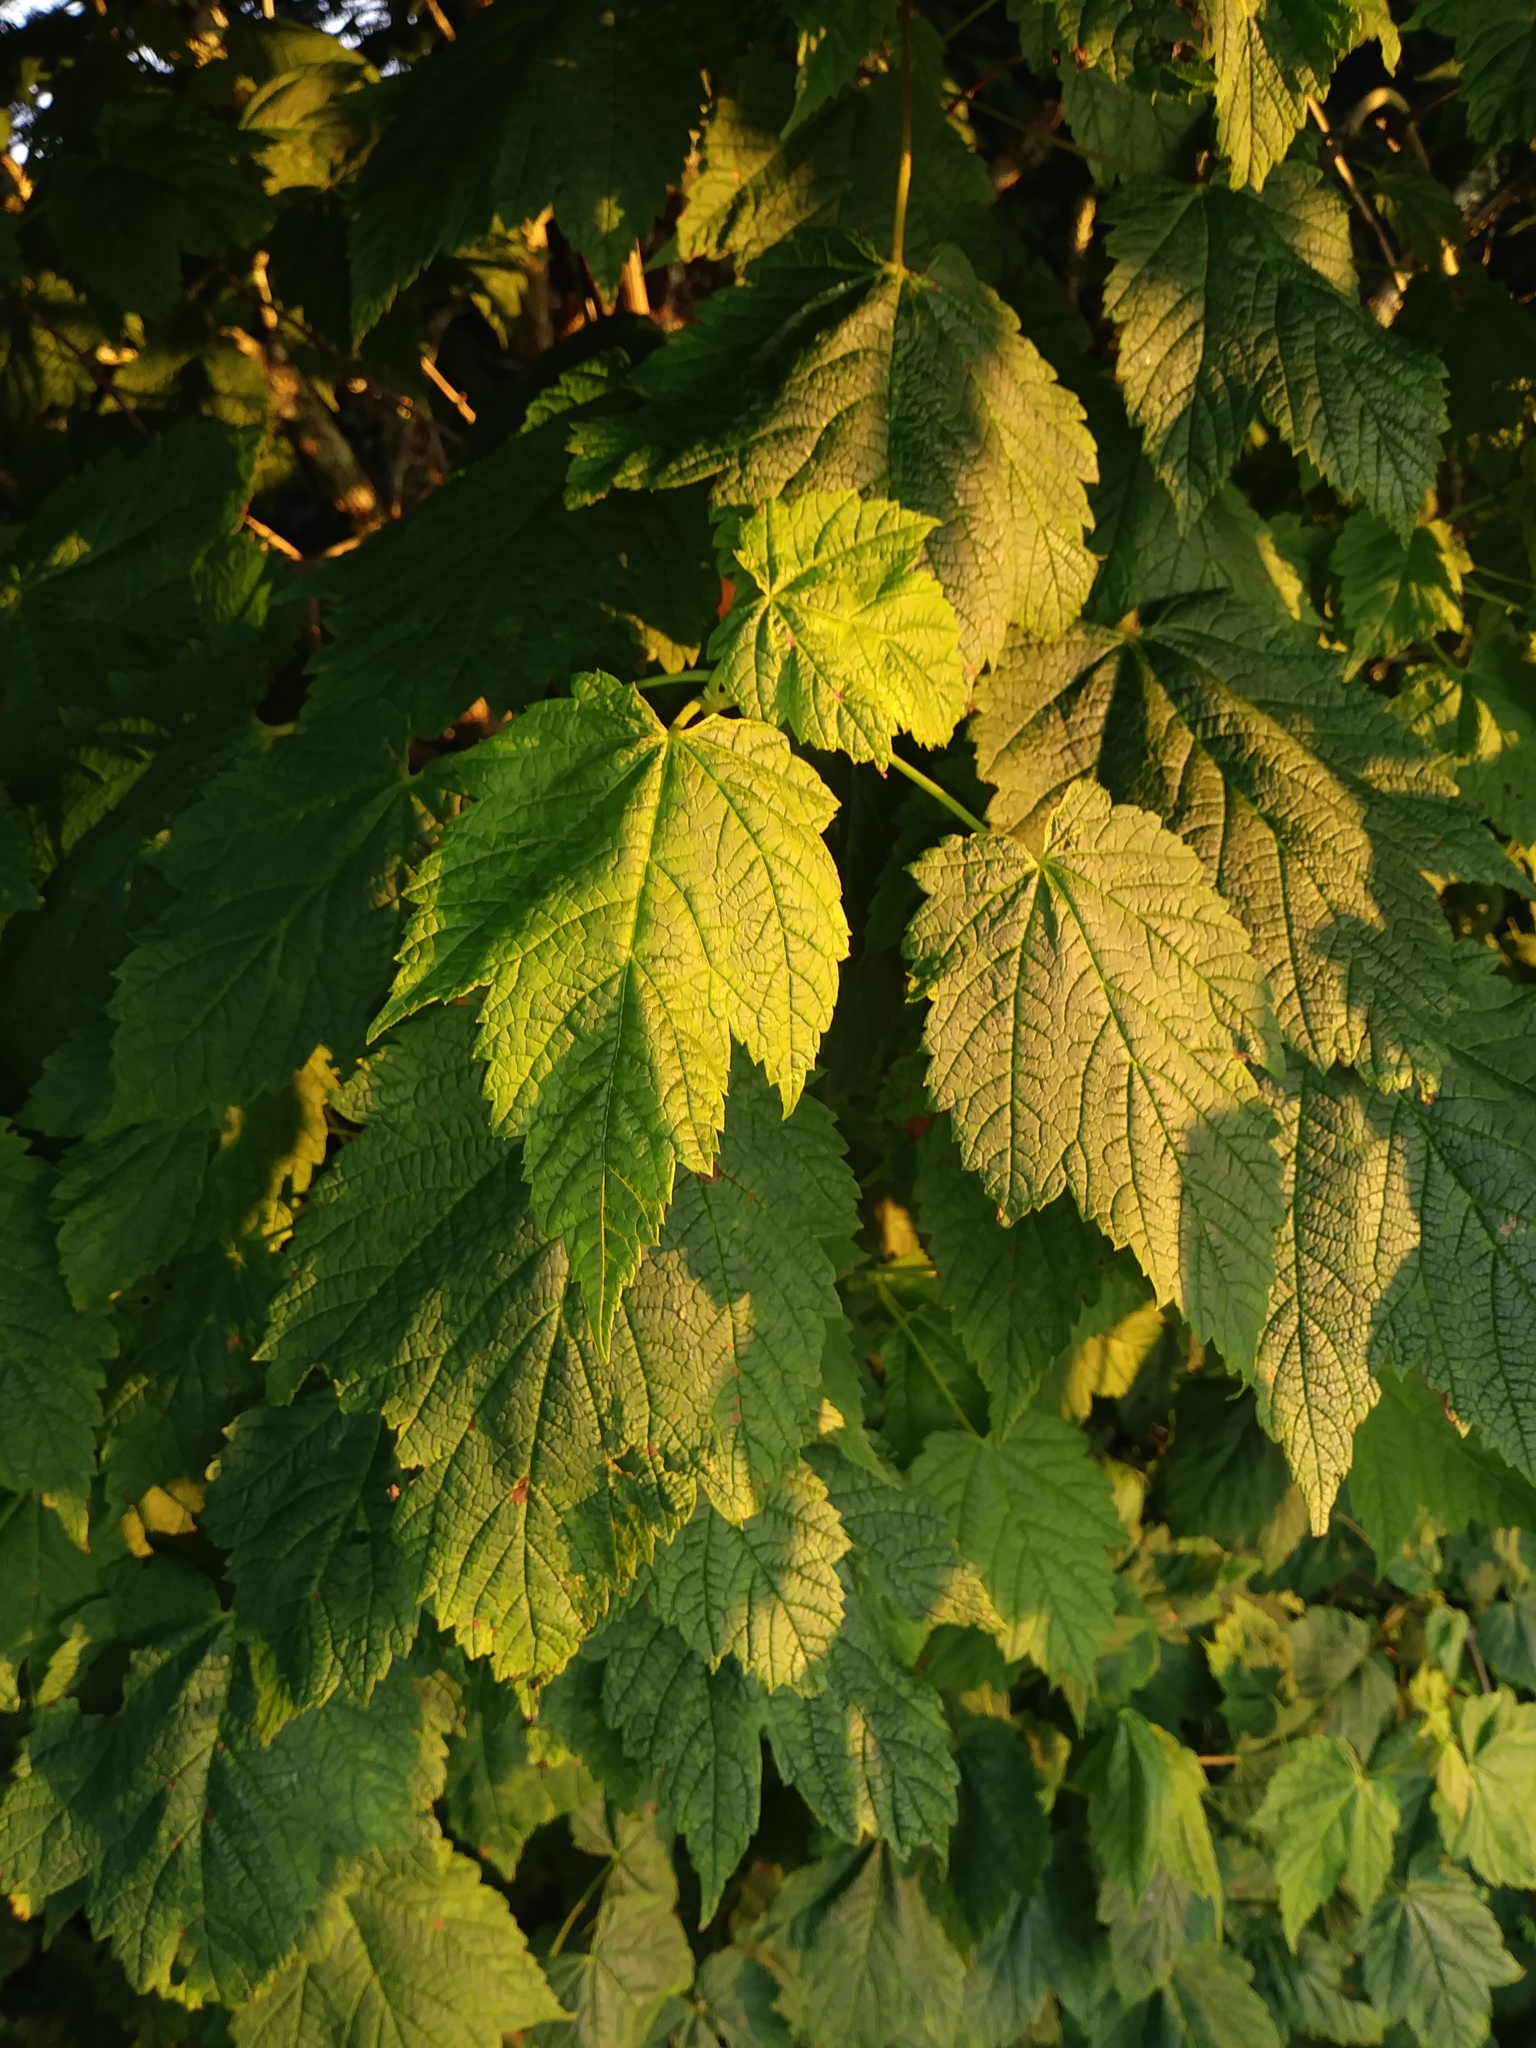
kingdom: Plantae
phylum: Tracheophyta
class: Magnoliopsida
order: Sapindales
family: Sapindaceae
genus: Acer
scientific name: Acer spicatum
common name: Mountain maple
